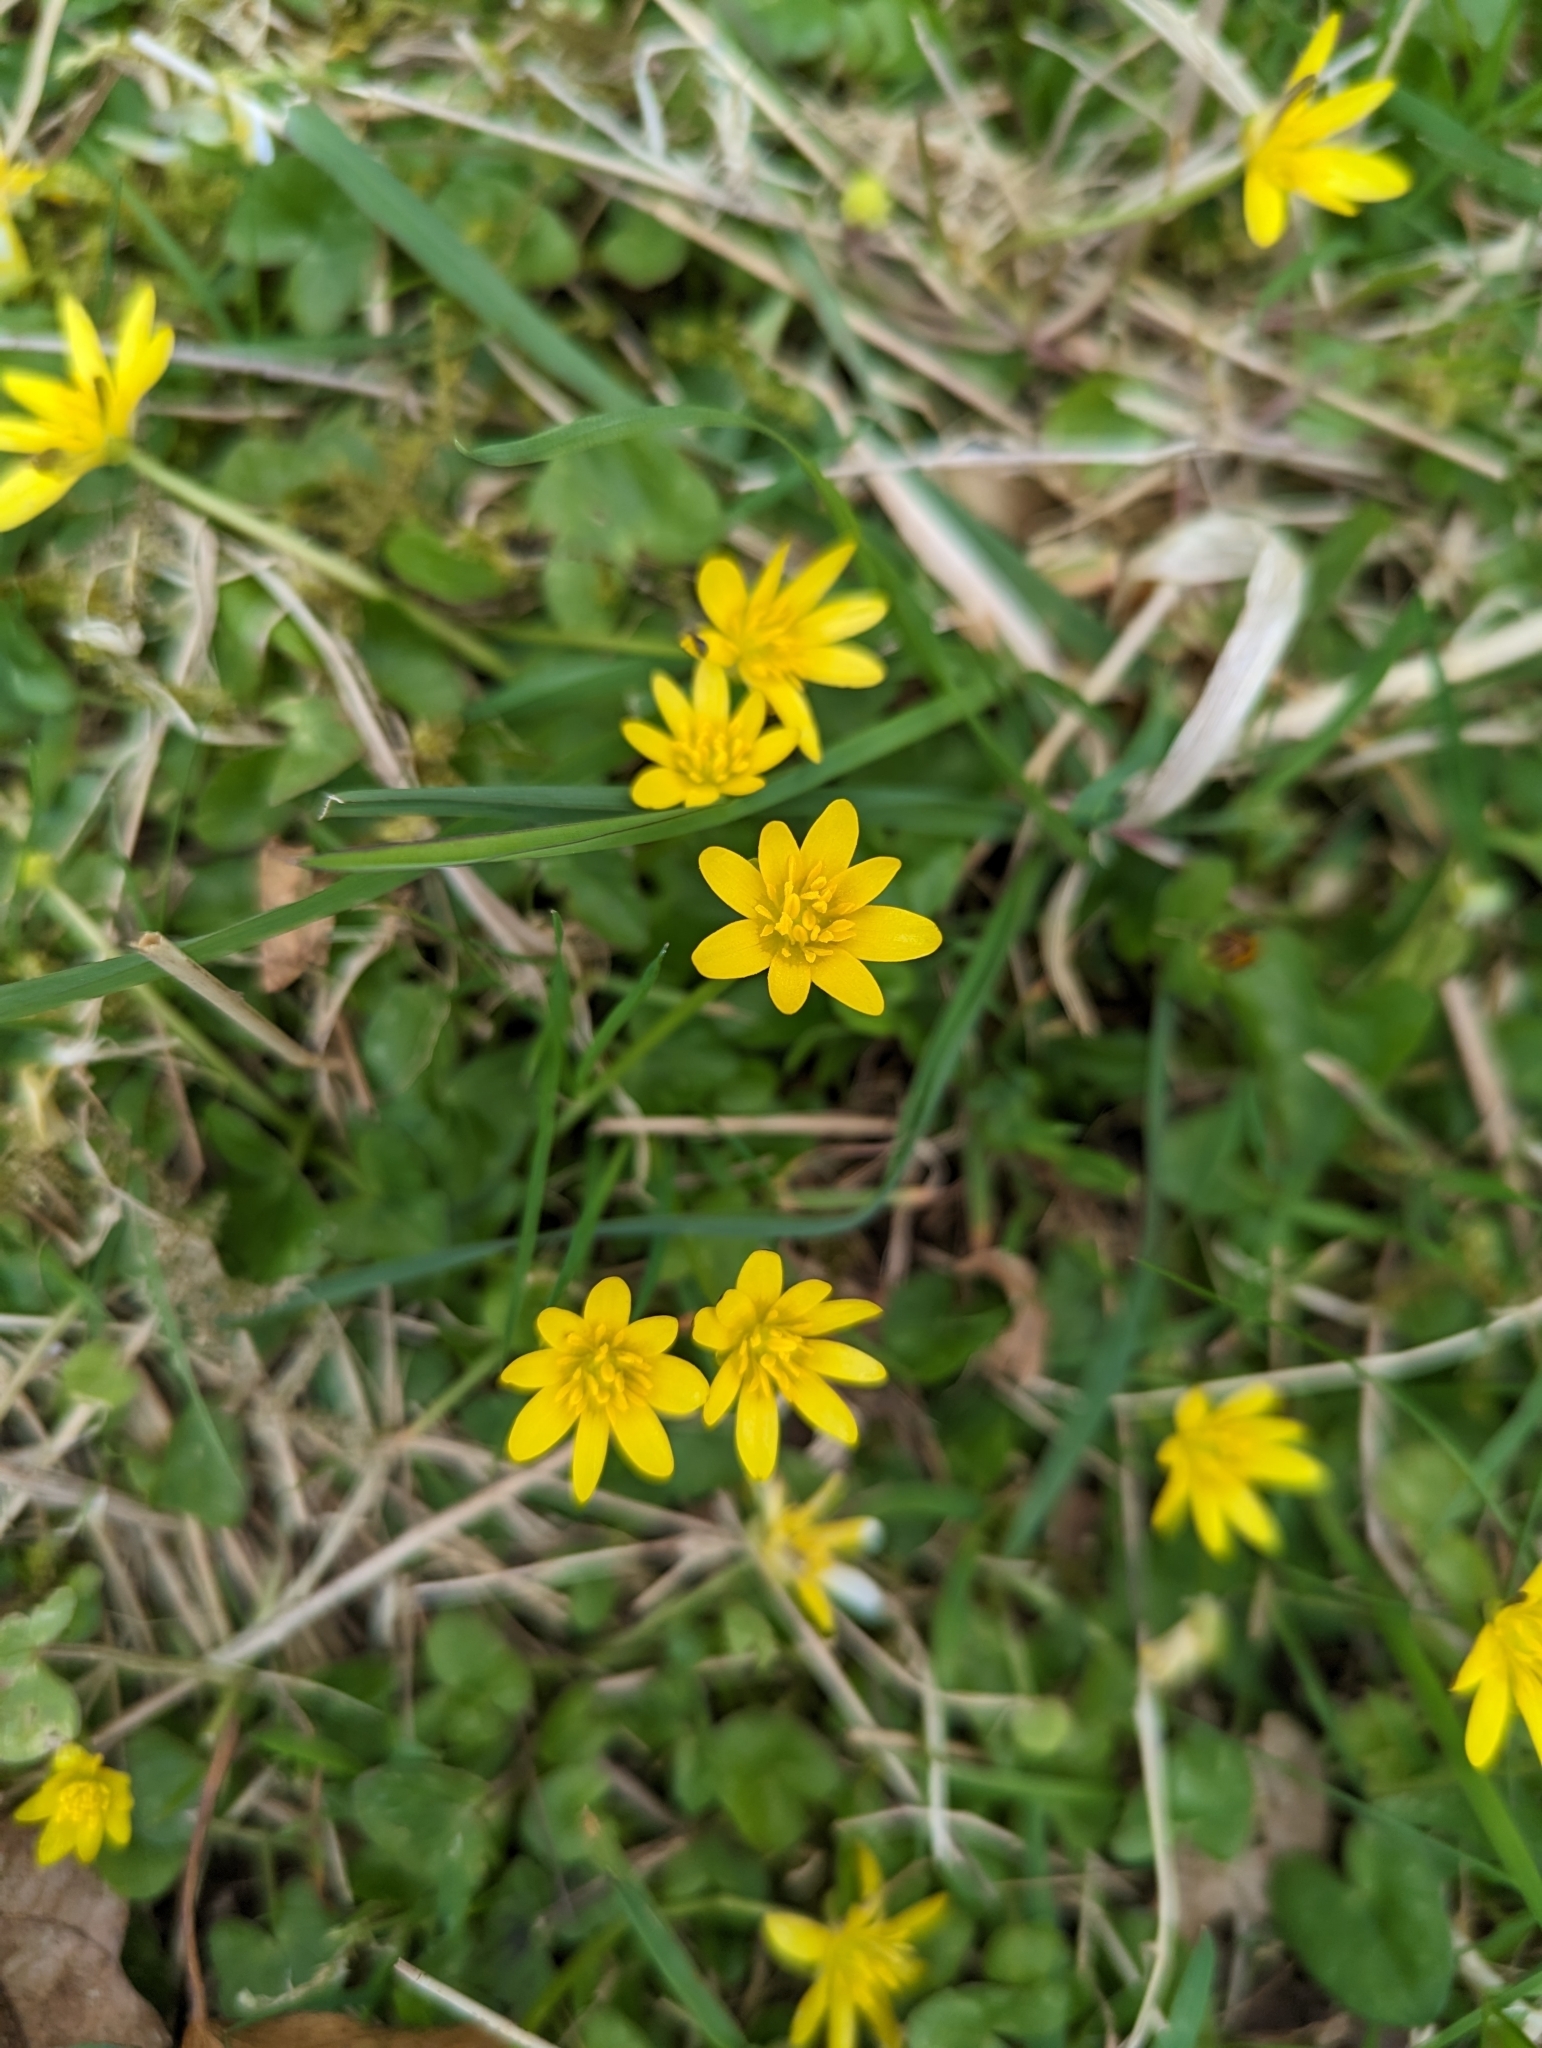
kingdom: Plantae
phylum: Tracheophyta
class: Magnoliopsida
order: Ranunculales
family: Ranunculaceae
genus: Ficaria
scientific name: Ficaria verna
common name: Lesser celandine
